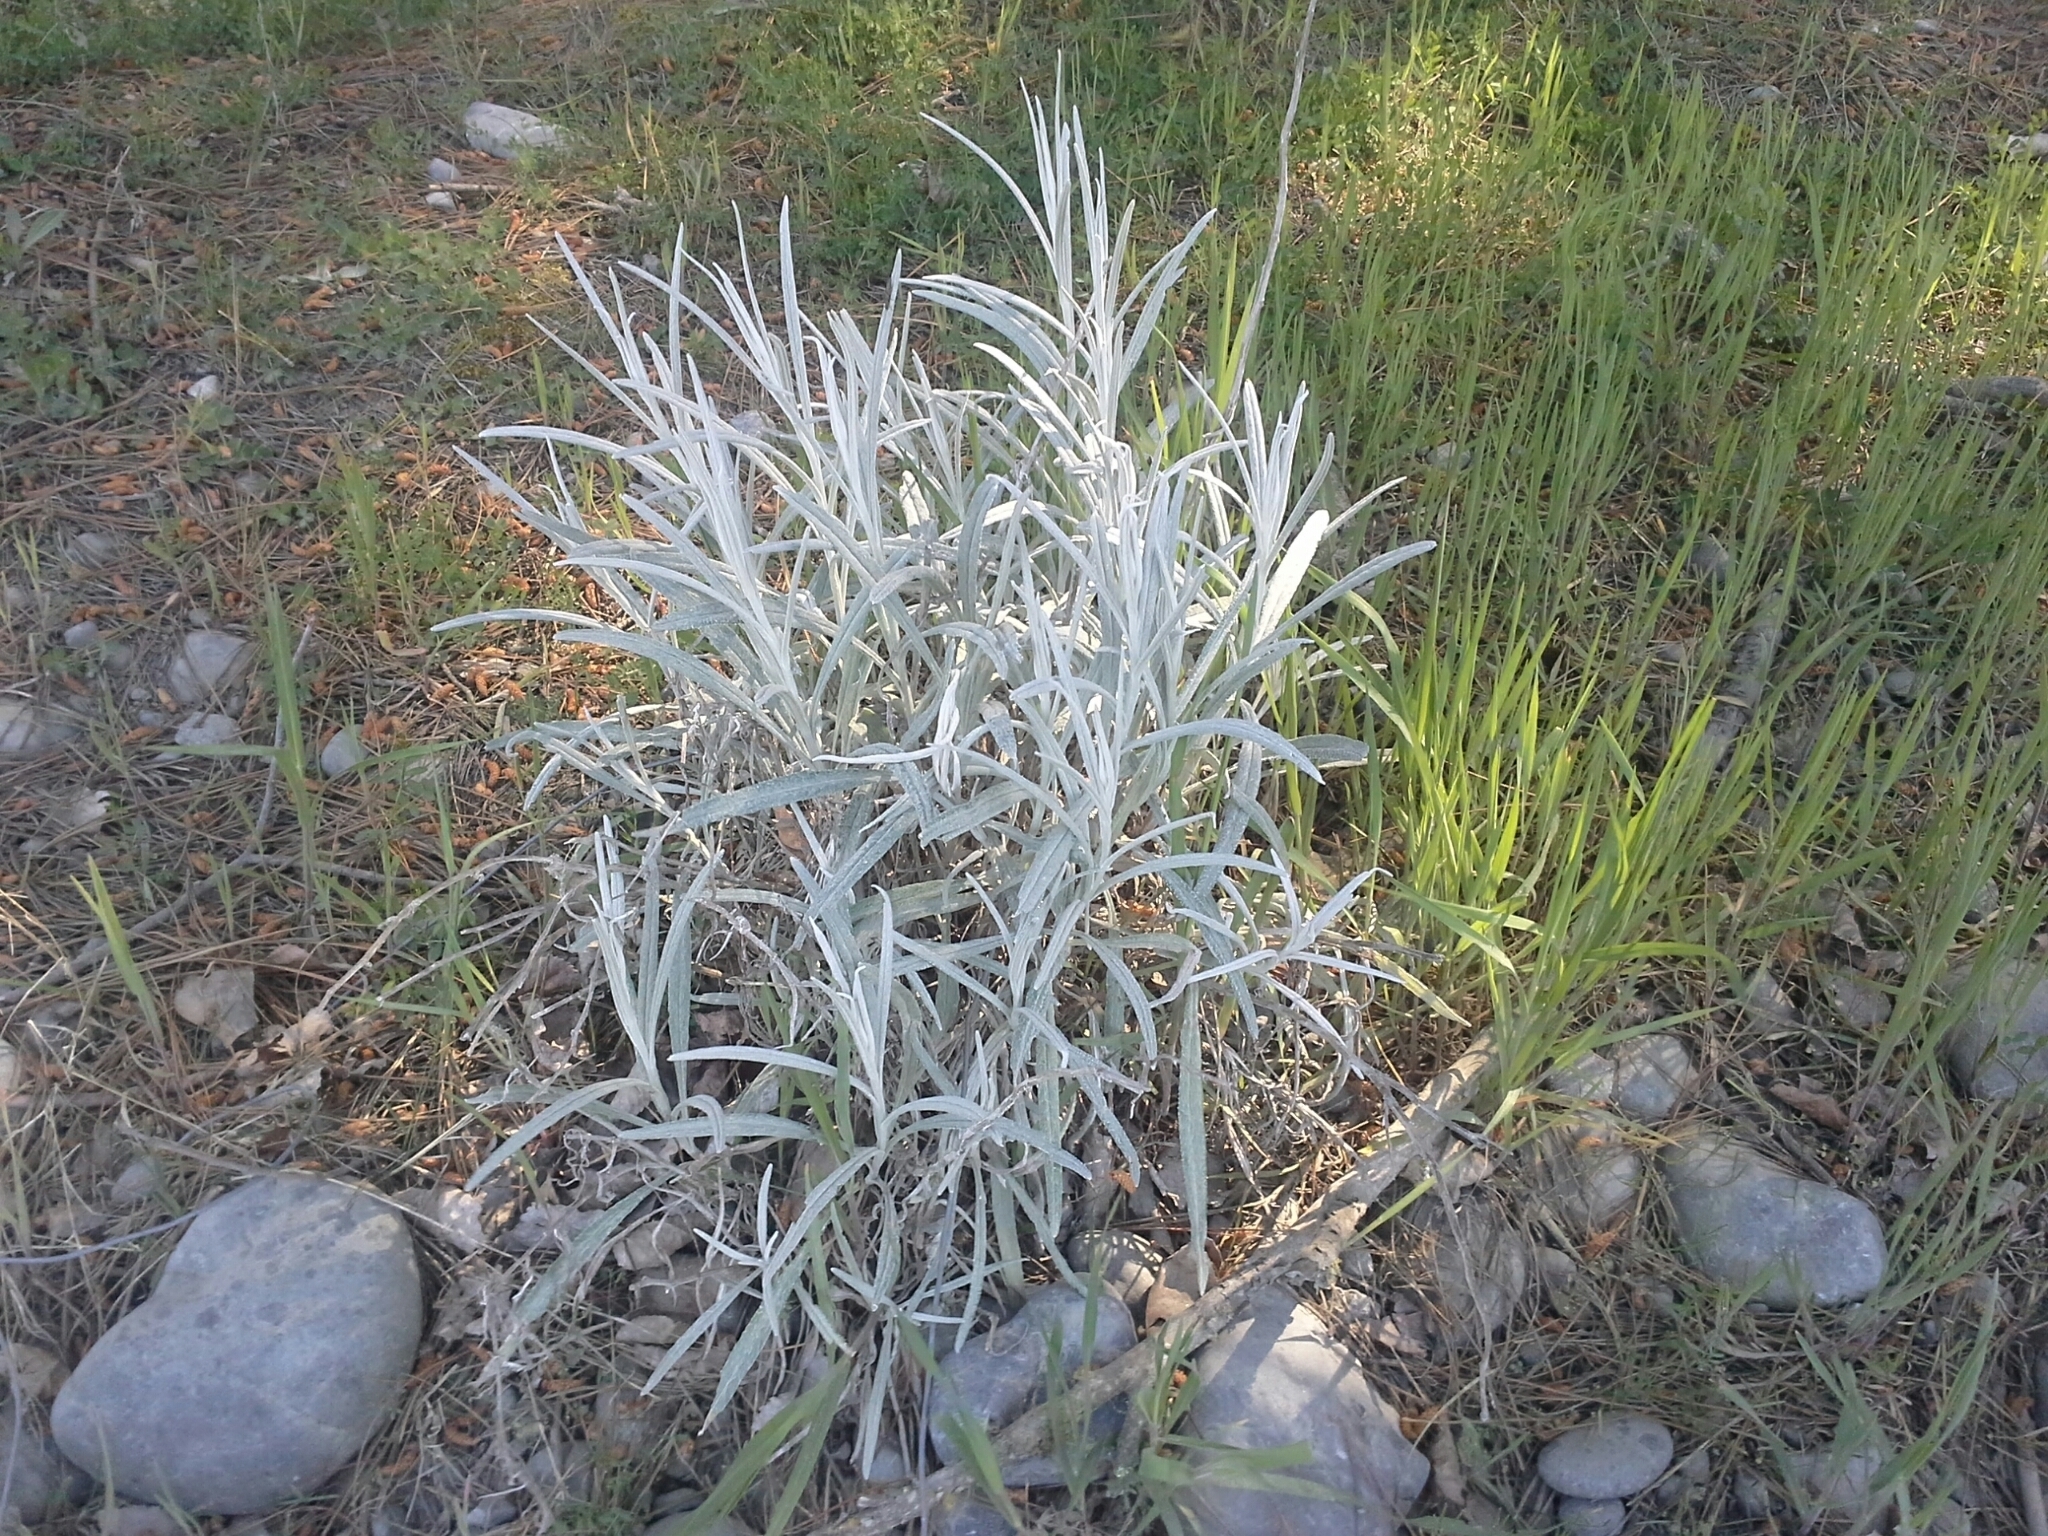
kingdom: Plantae
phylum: Tracheophyta
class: Magnoliopsida
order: Asterales
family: Asteraceae
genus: Senecio
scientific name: Senecio quadridentatus
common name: Cotton fireweed
